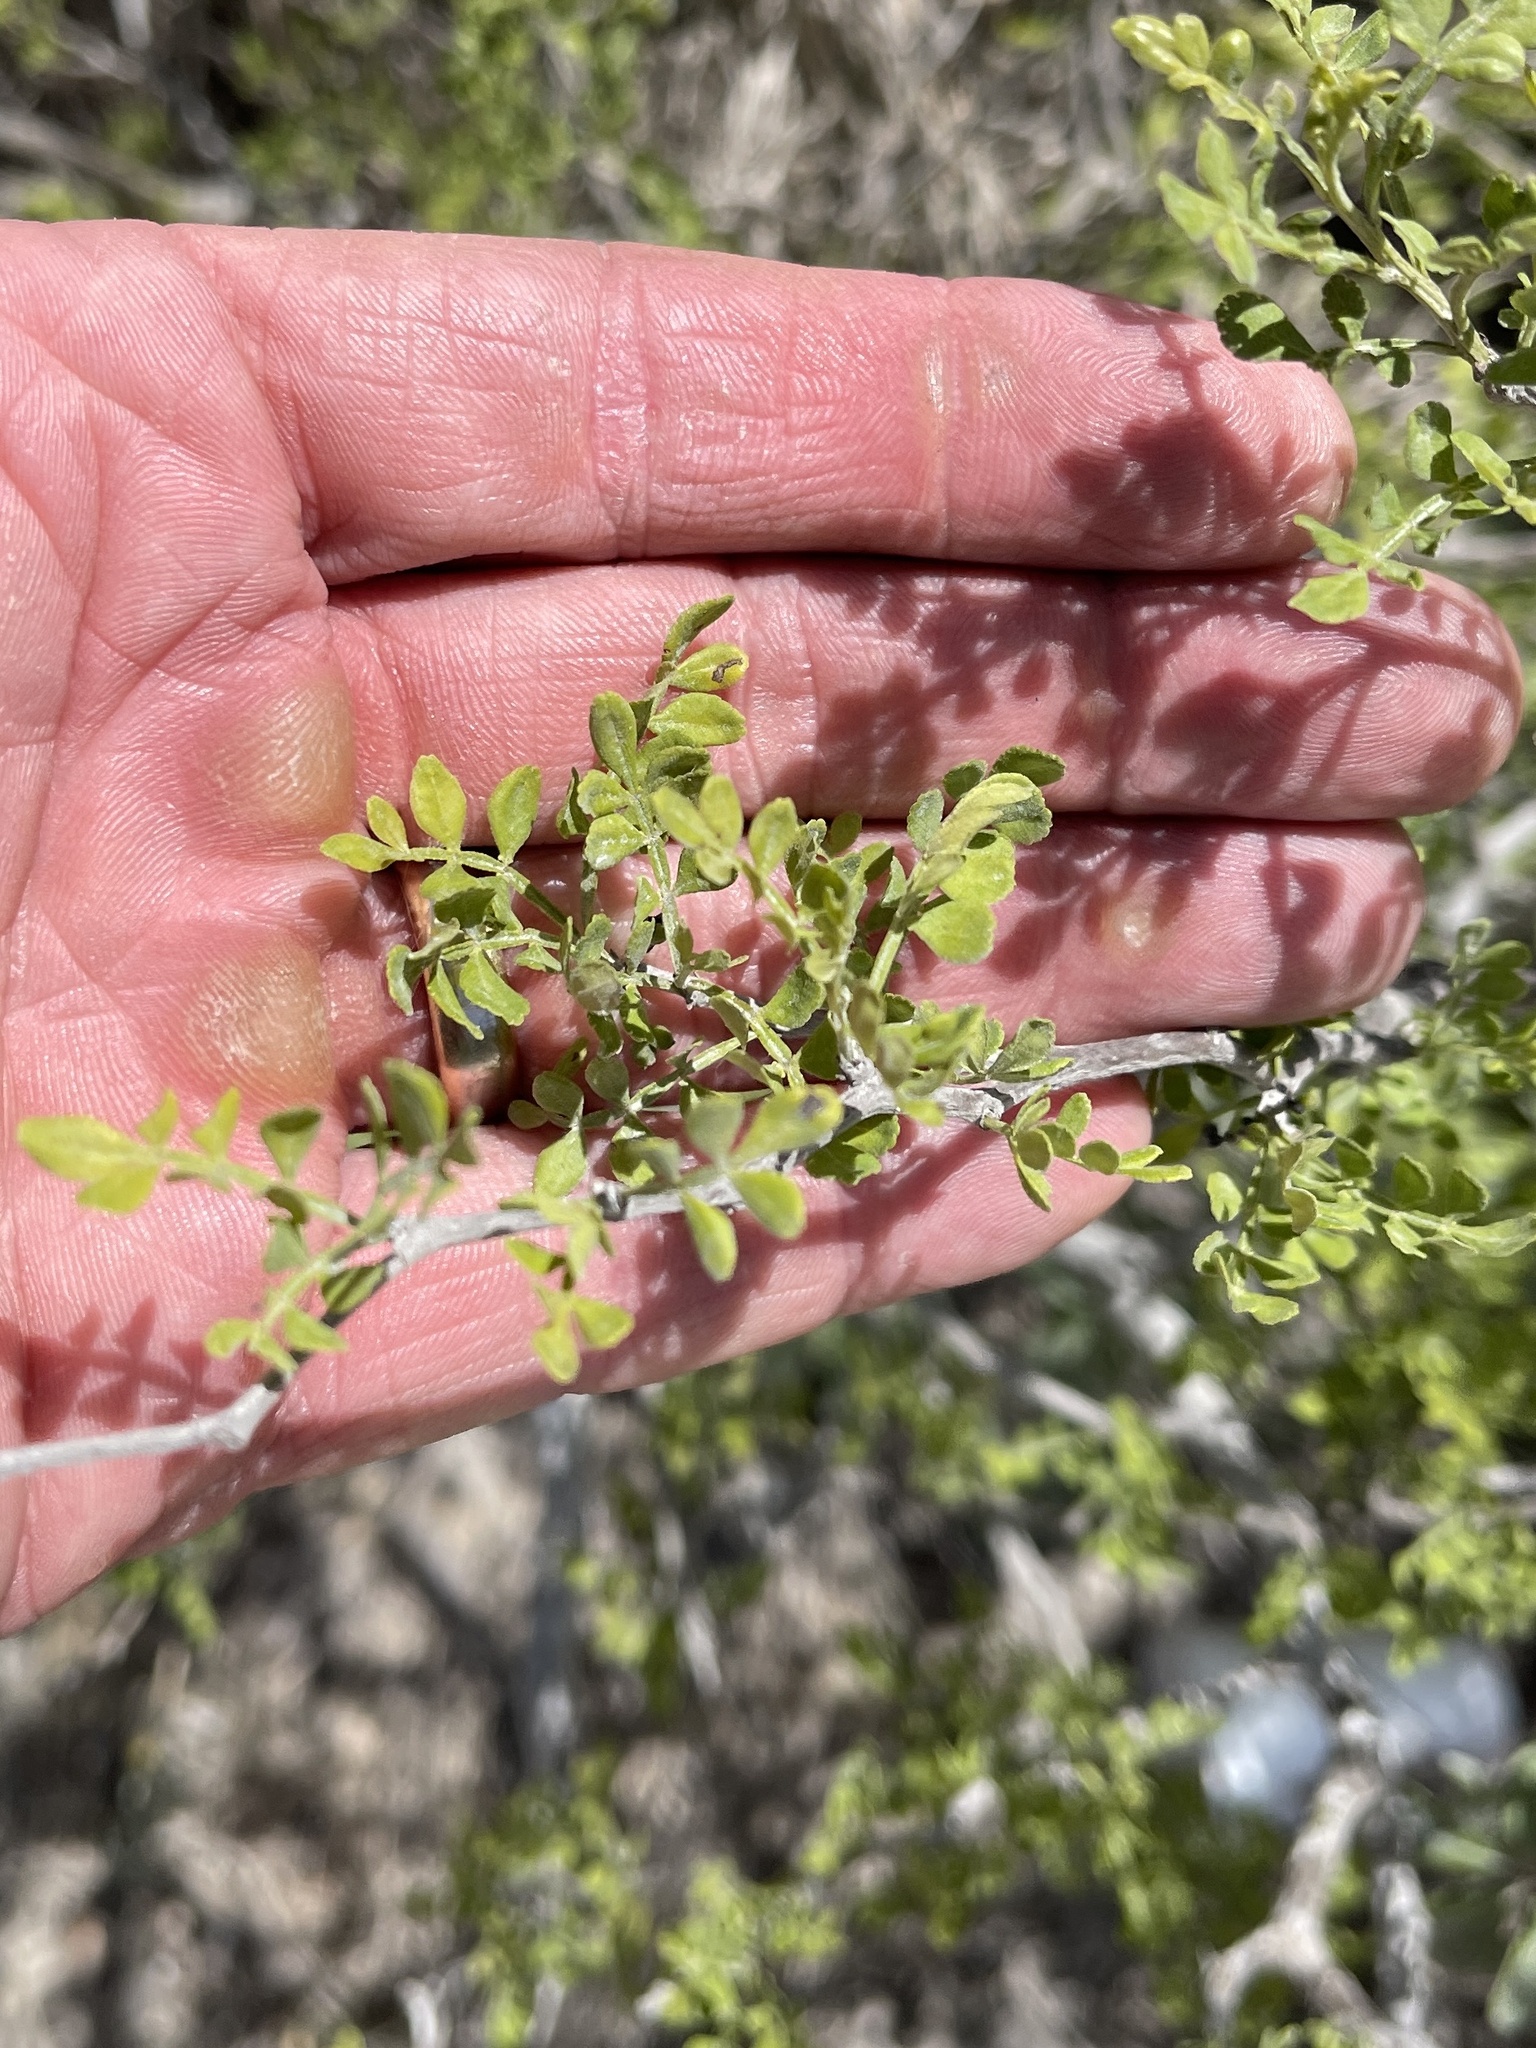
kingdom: Plantae
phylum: Tracheophyta
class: Magnoliopsida
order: Sapindales
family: Rutaceae
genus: Zanthoxylum
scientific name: Zanthoxylum fagara
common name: Lime prickly-ash
